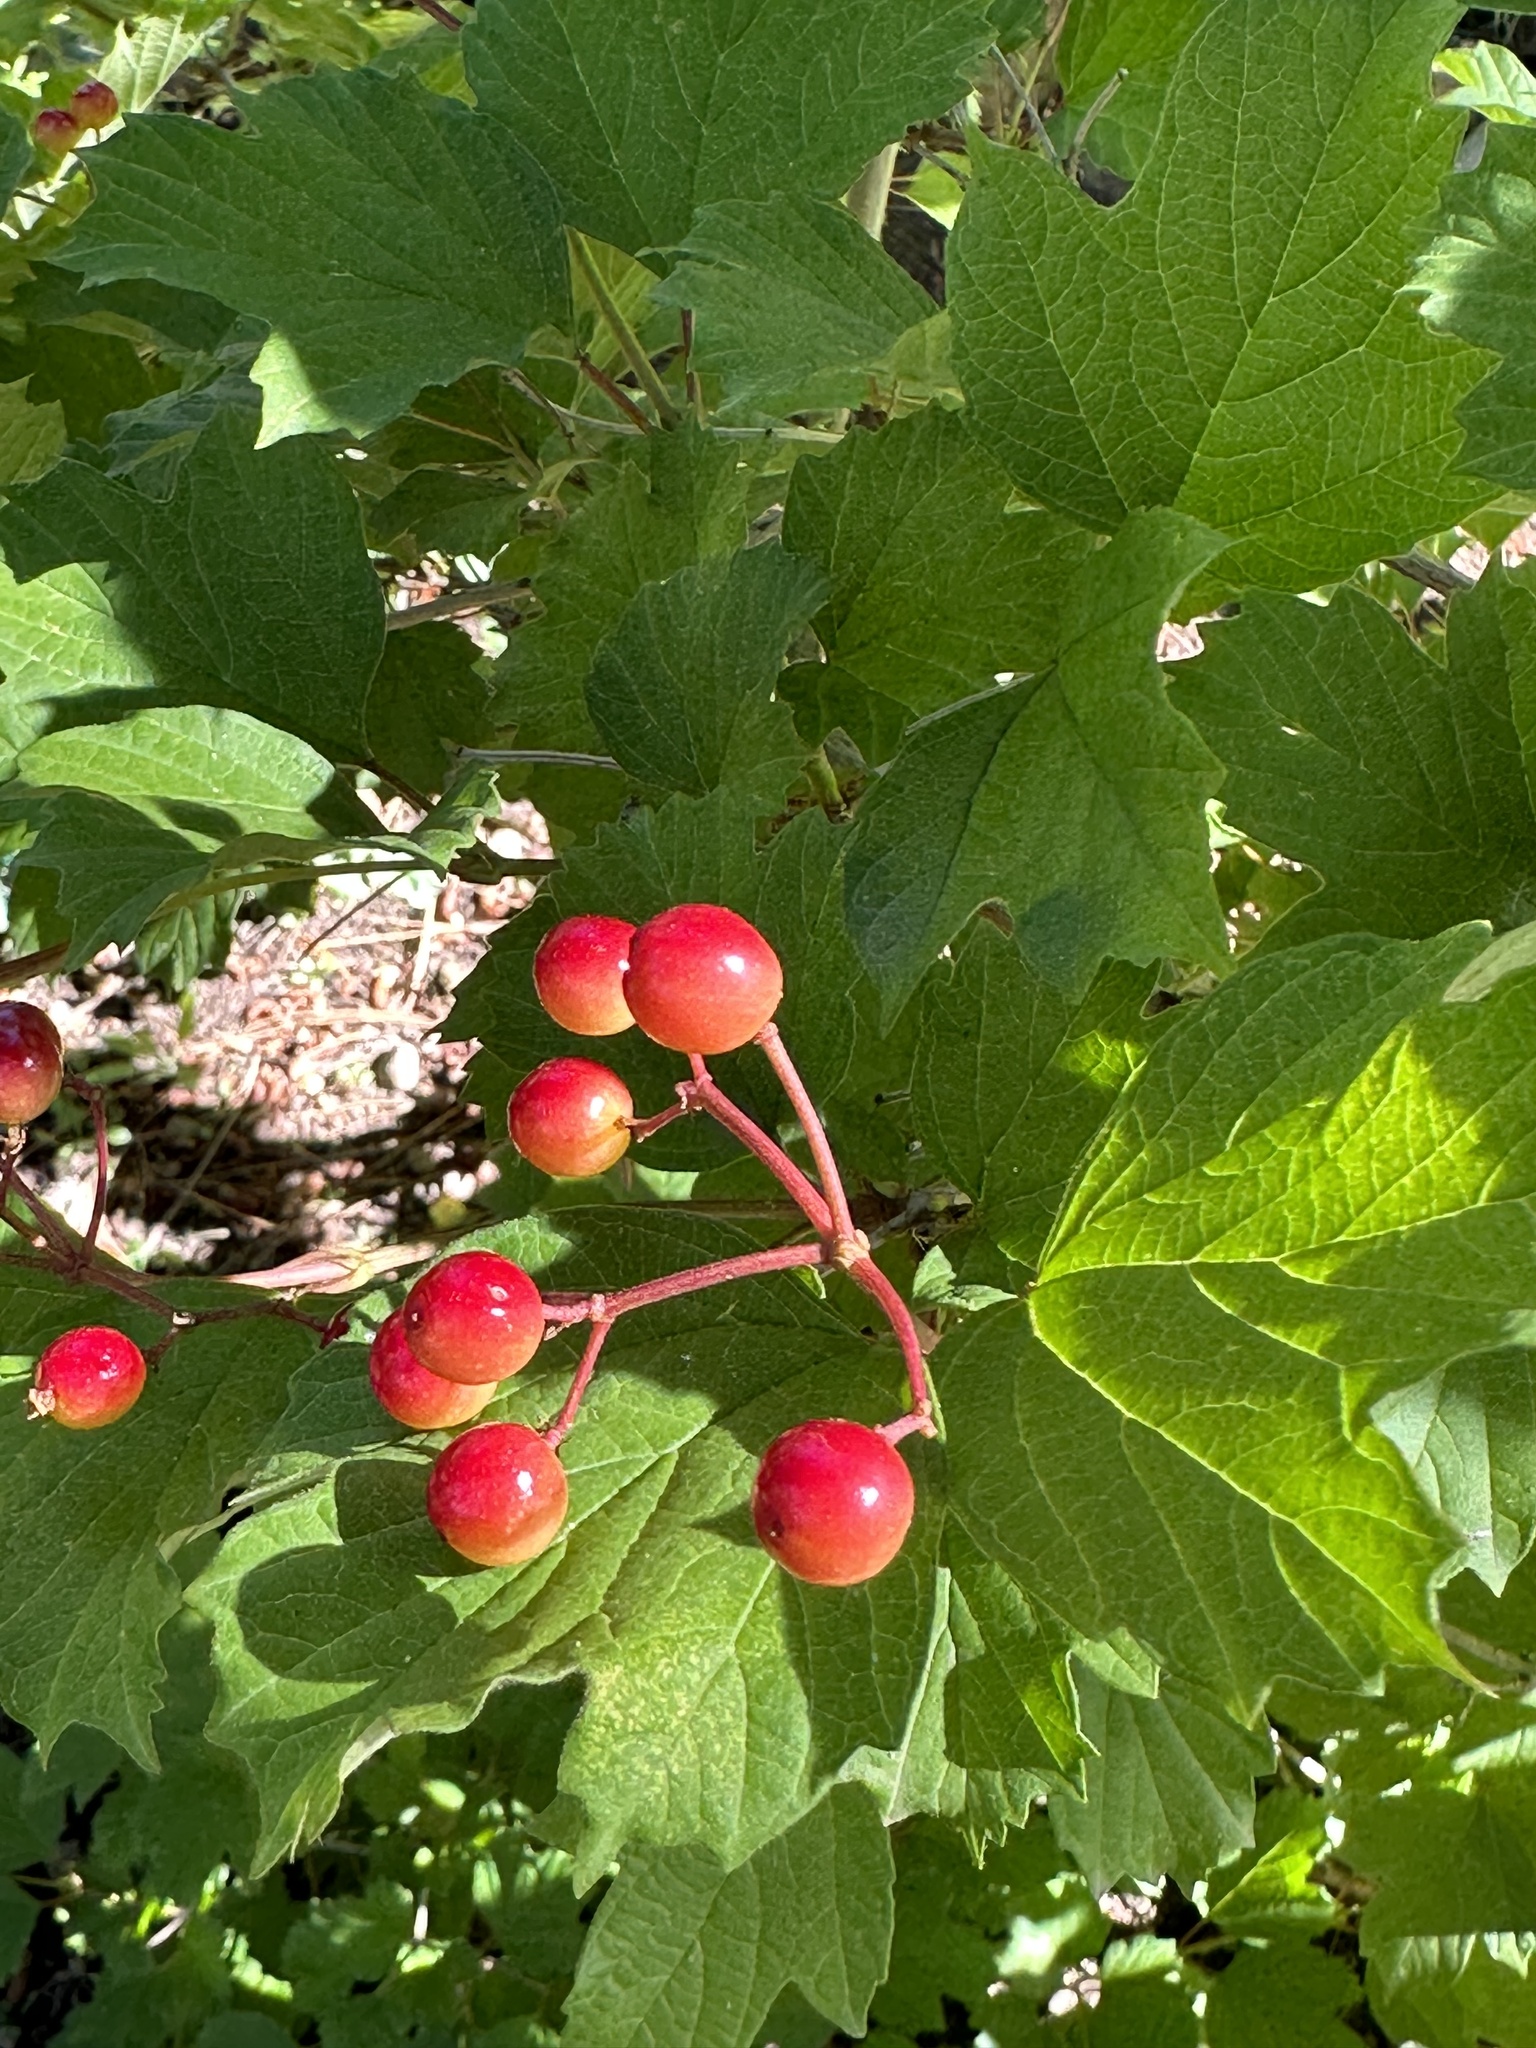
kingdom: Plantae
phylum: Tracheophyta
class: Magnoliopsida
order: Dipsacales
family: Viburnaceae
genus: Viburnum
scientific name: Viburnum opulus
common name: Guelder-rose
